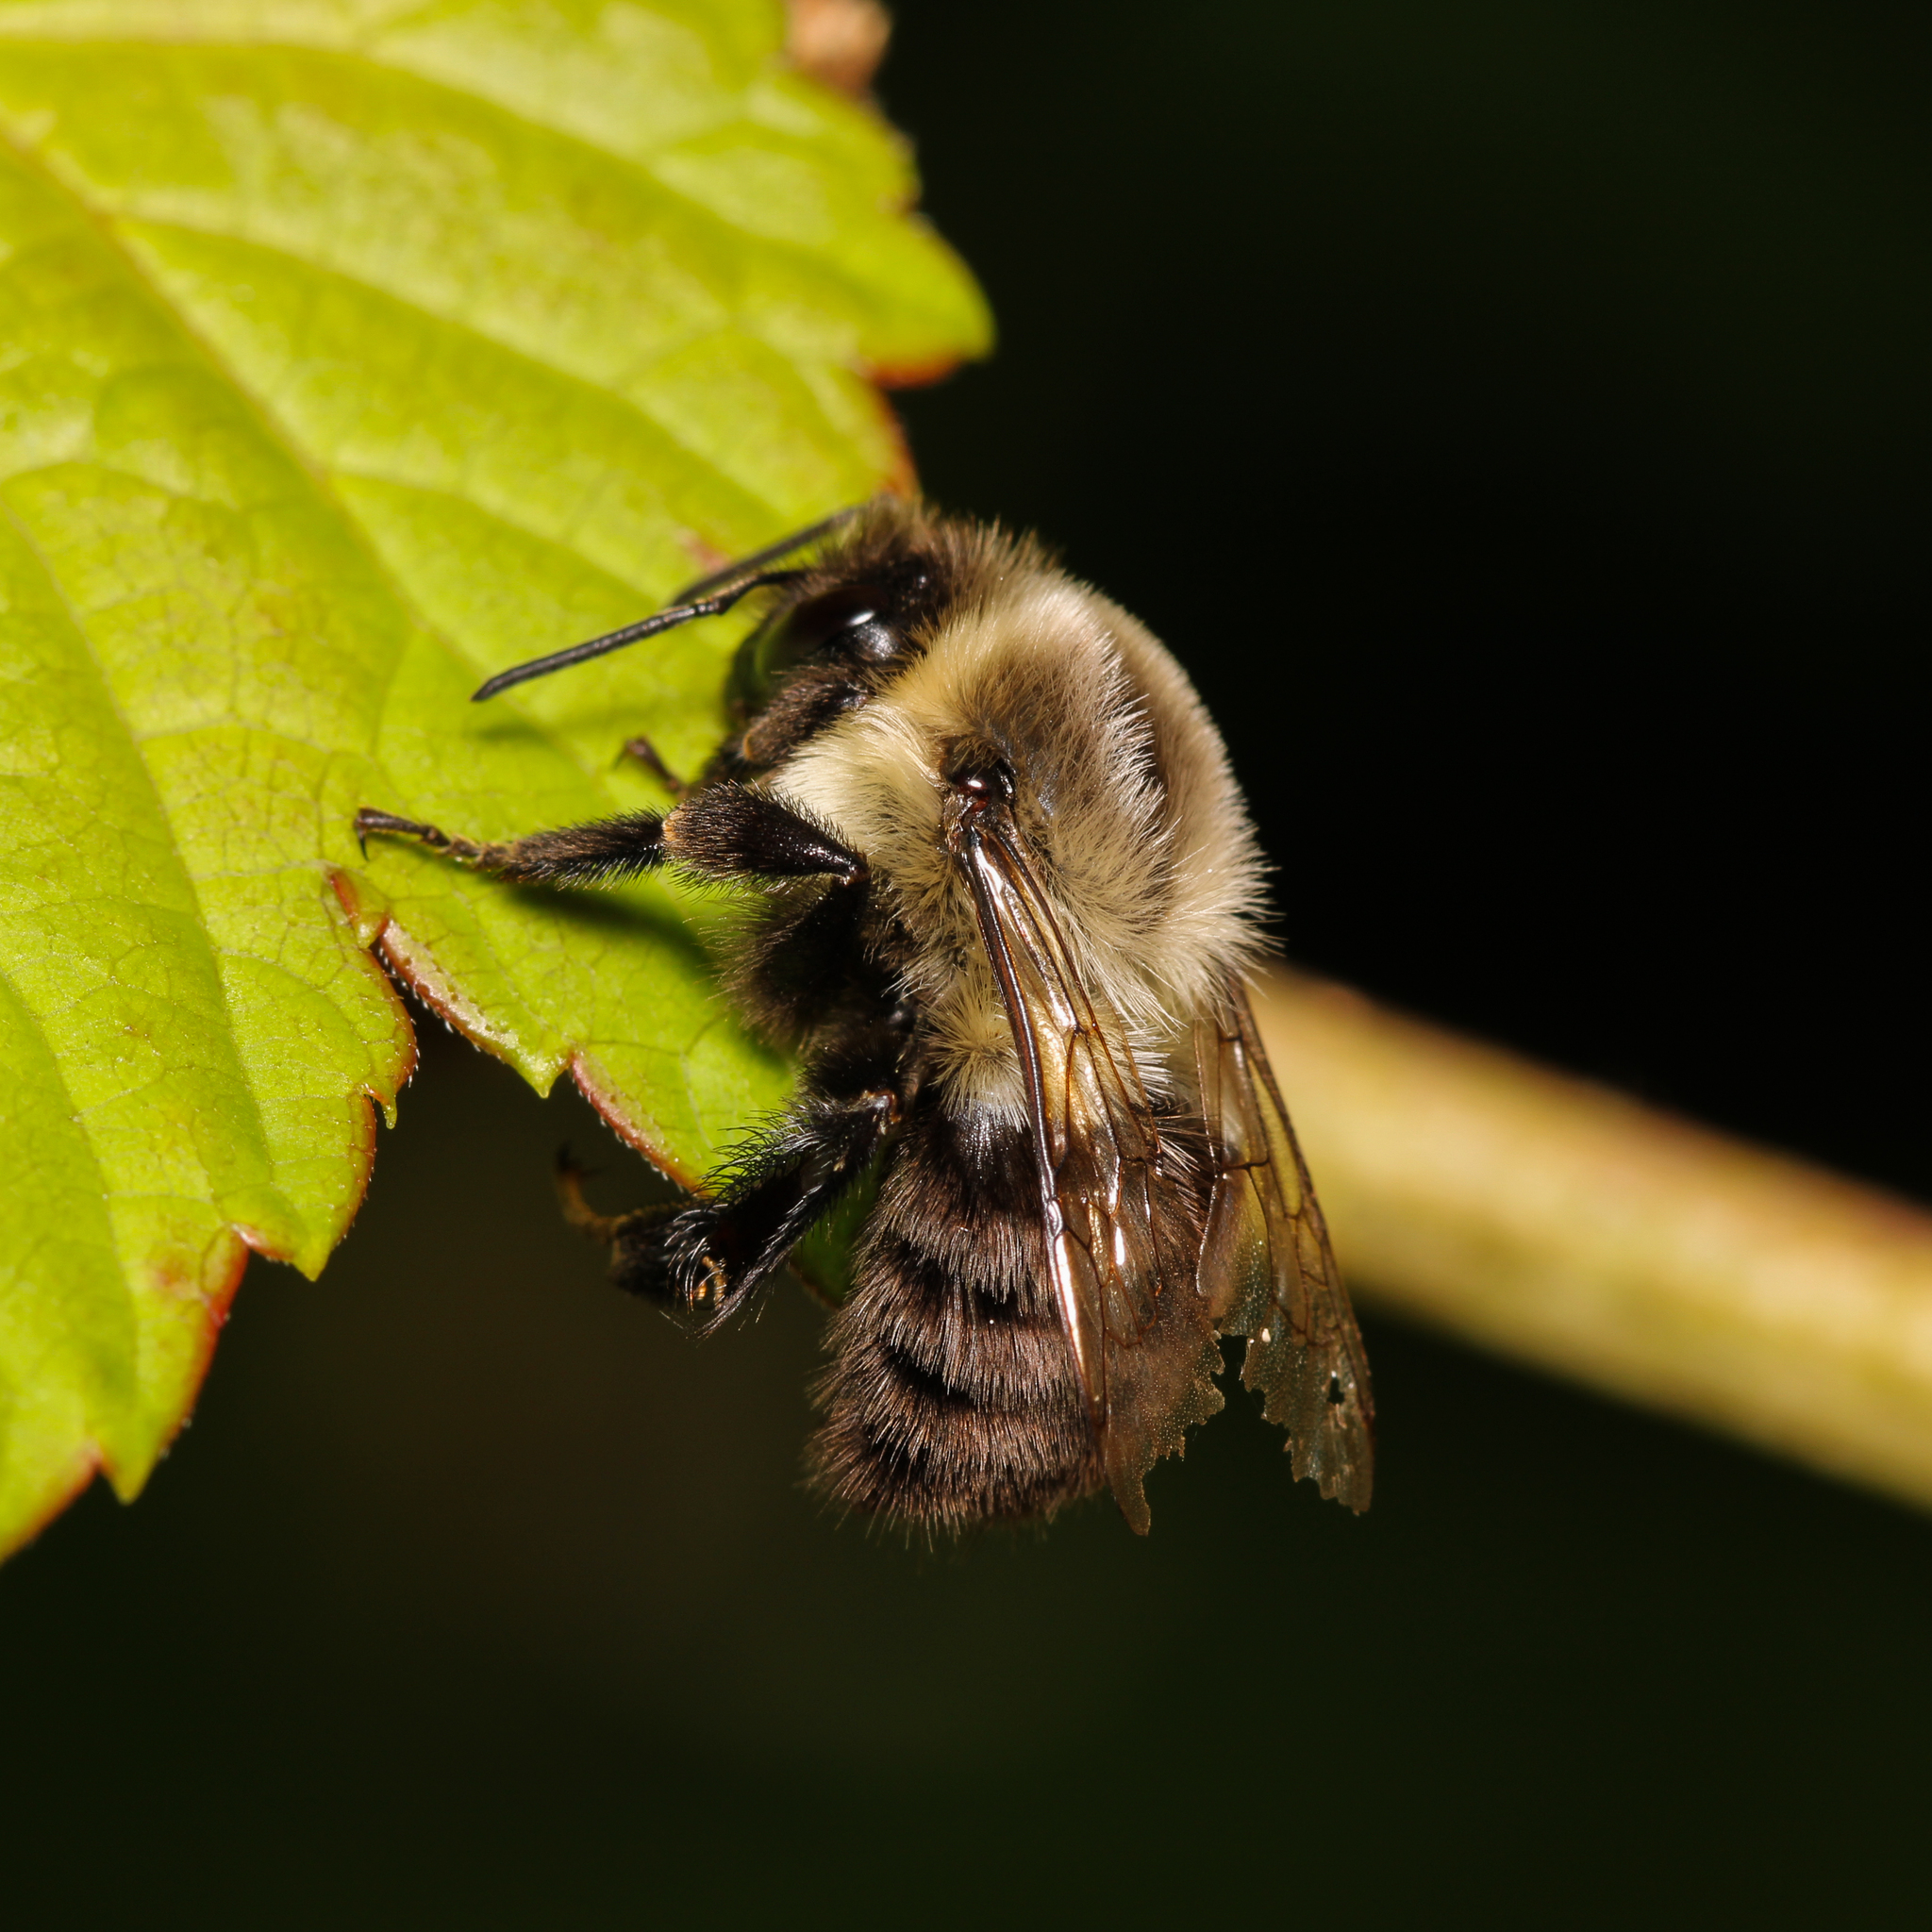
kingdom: Animalia
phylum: Arthropoda
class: Insecta
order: Hymenoptera
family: Apidae
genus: Bombus
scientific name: Bombus impatiens
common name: Common eastern bumble bee
